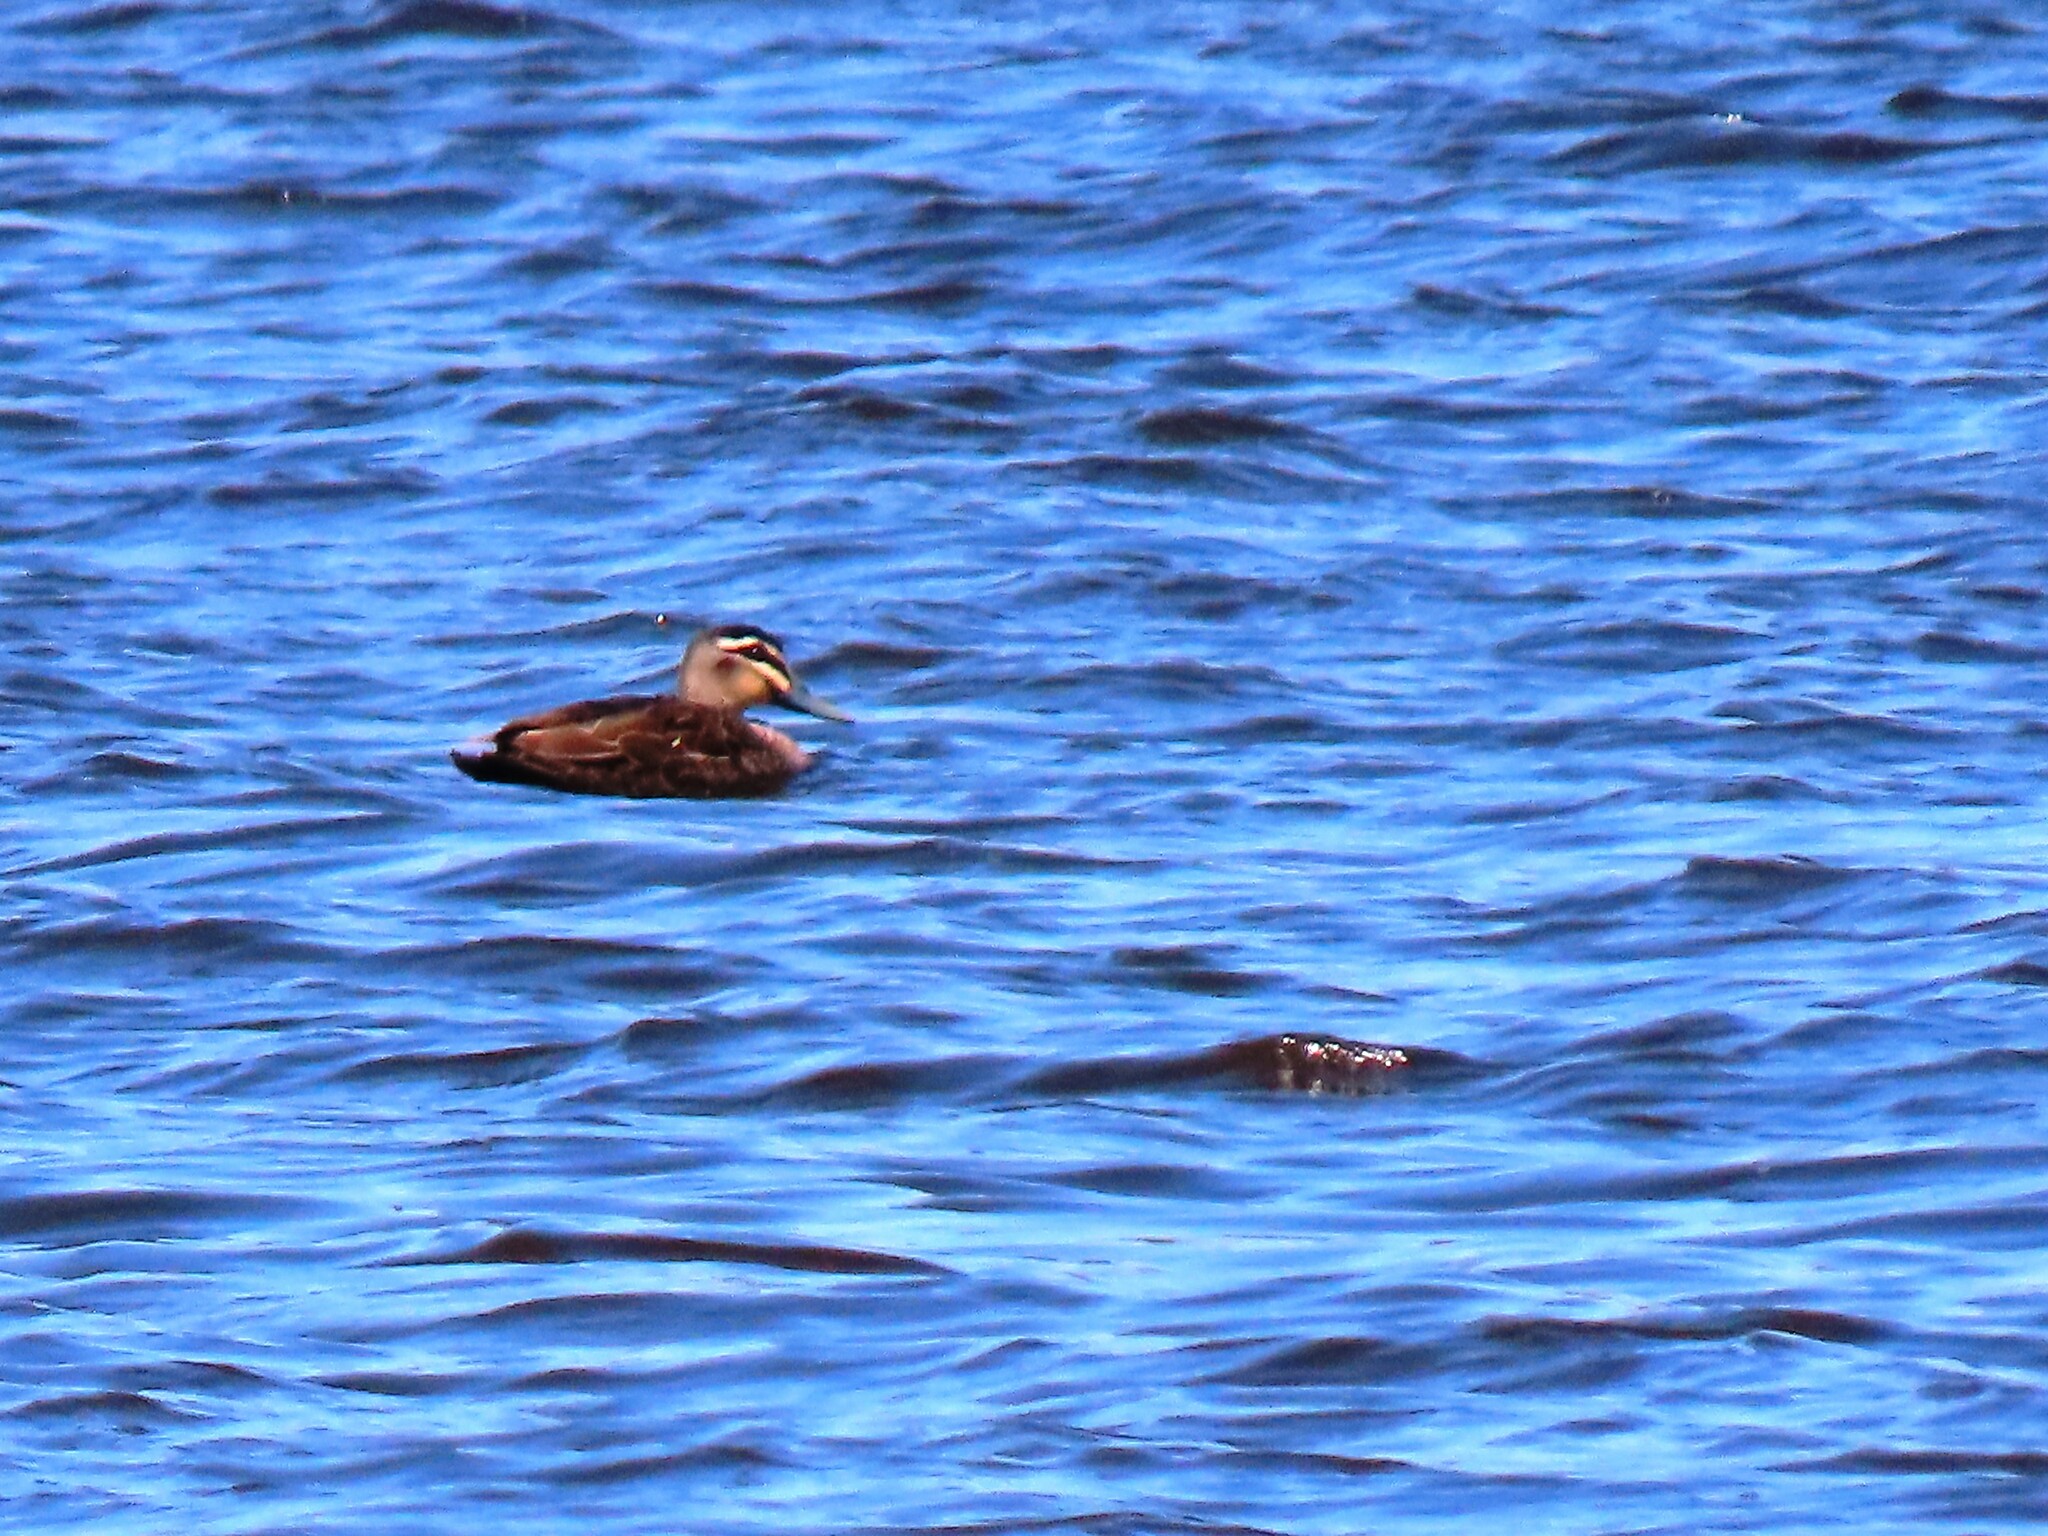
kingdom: Animalia
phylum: Chordata
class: Aves
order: Anseriformes
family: Anatidae
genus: Anas
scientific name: Anas superciliosa
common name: Pacific black duck
